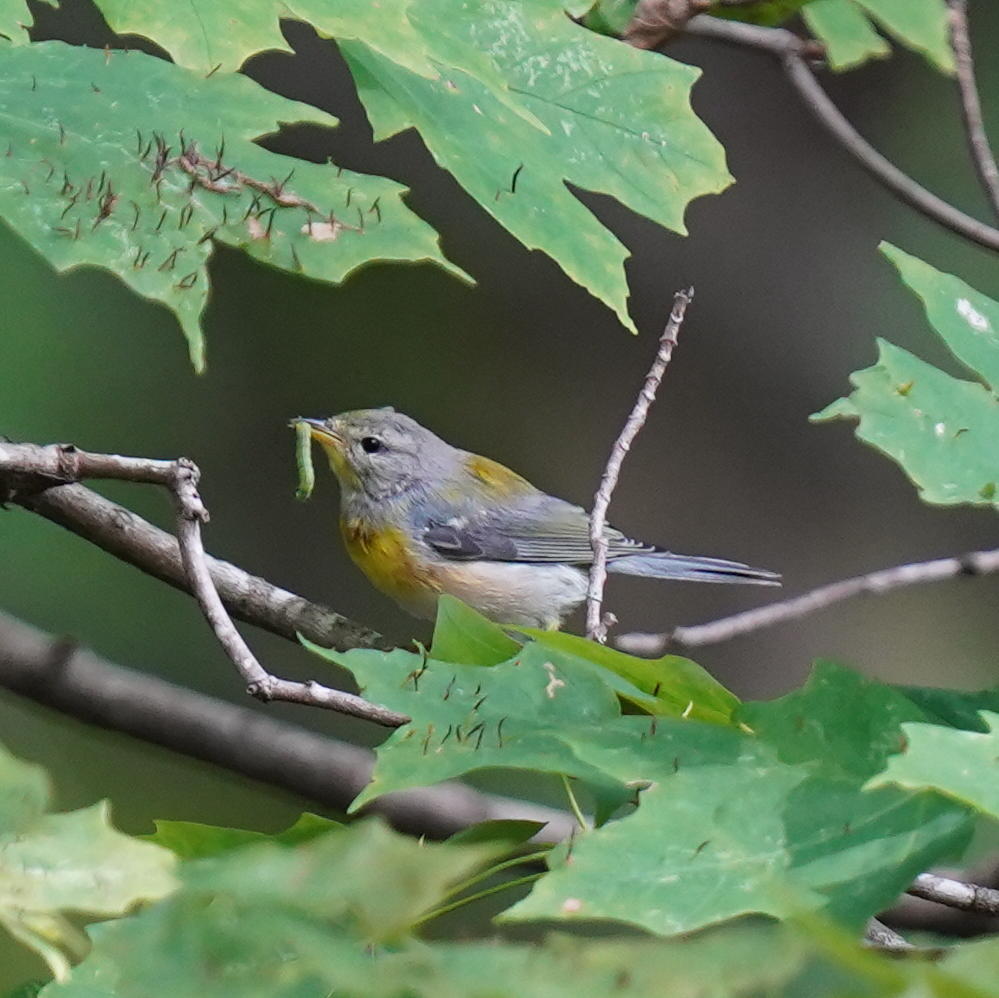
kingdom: Animalia
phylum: Chordata
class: Aves
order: Passeriformes
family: Parulidae
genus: Setophaga
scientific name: Setophaga americana
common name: Northern parula
